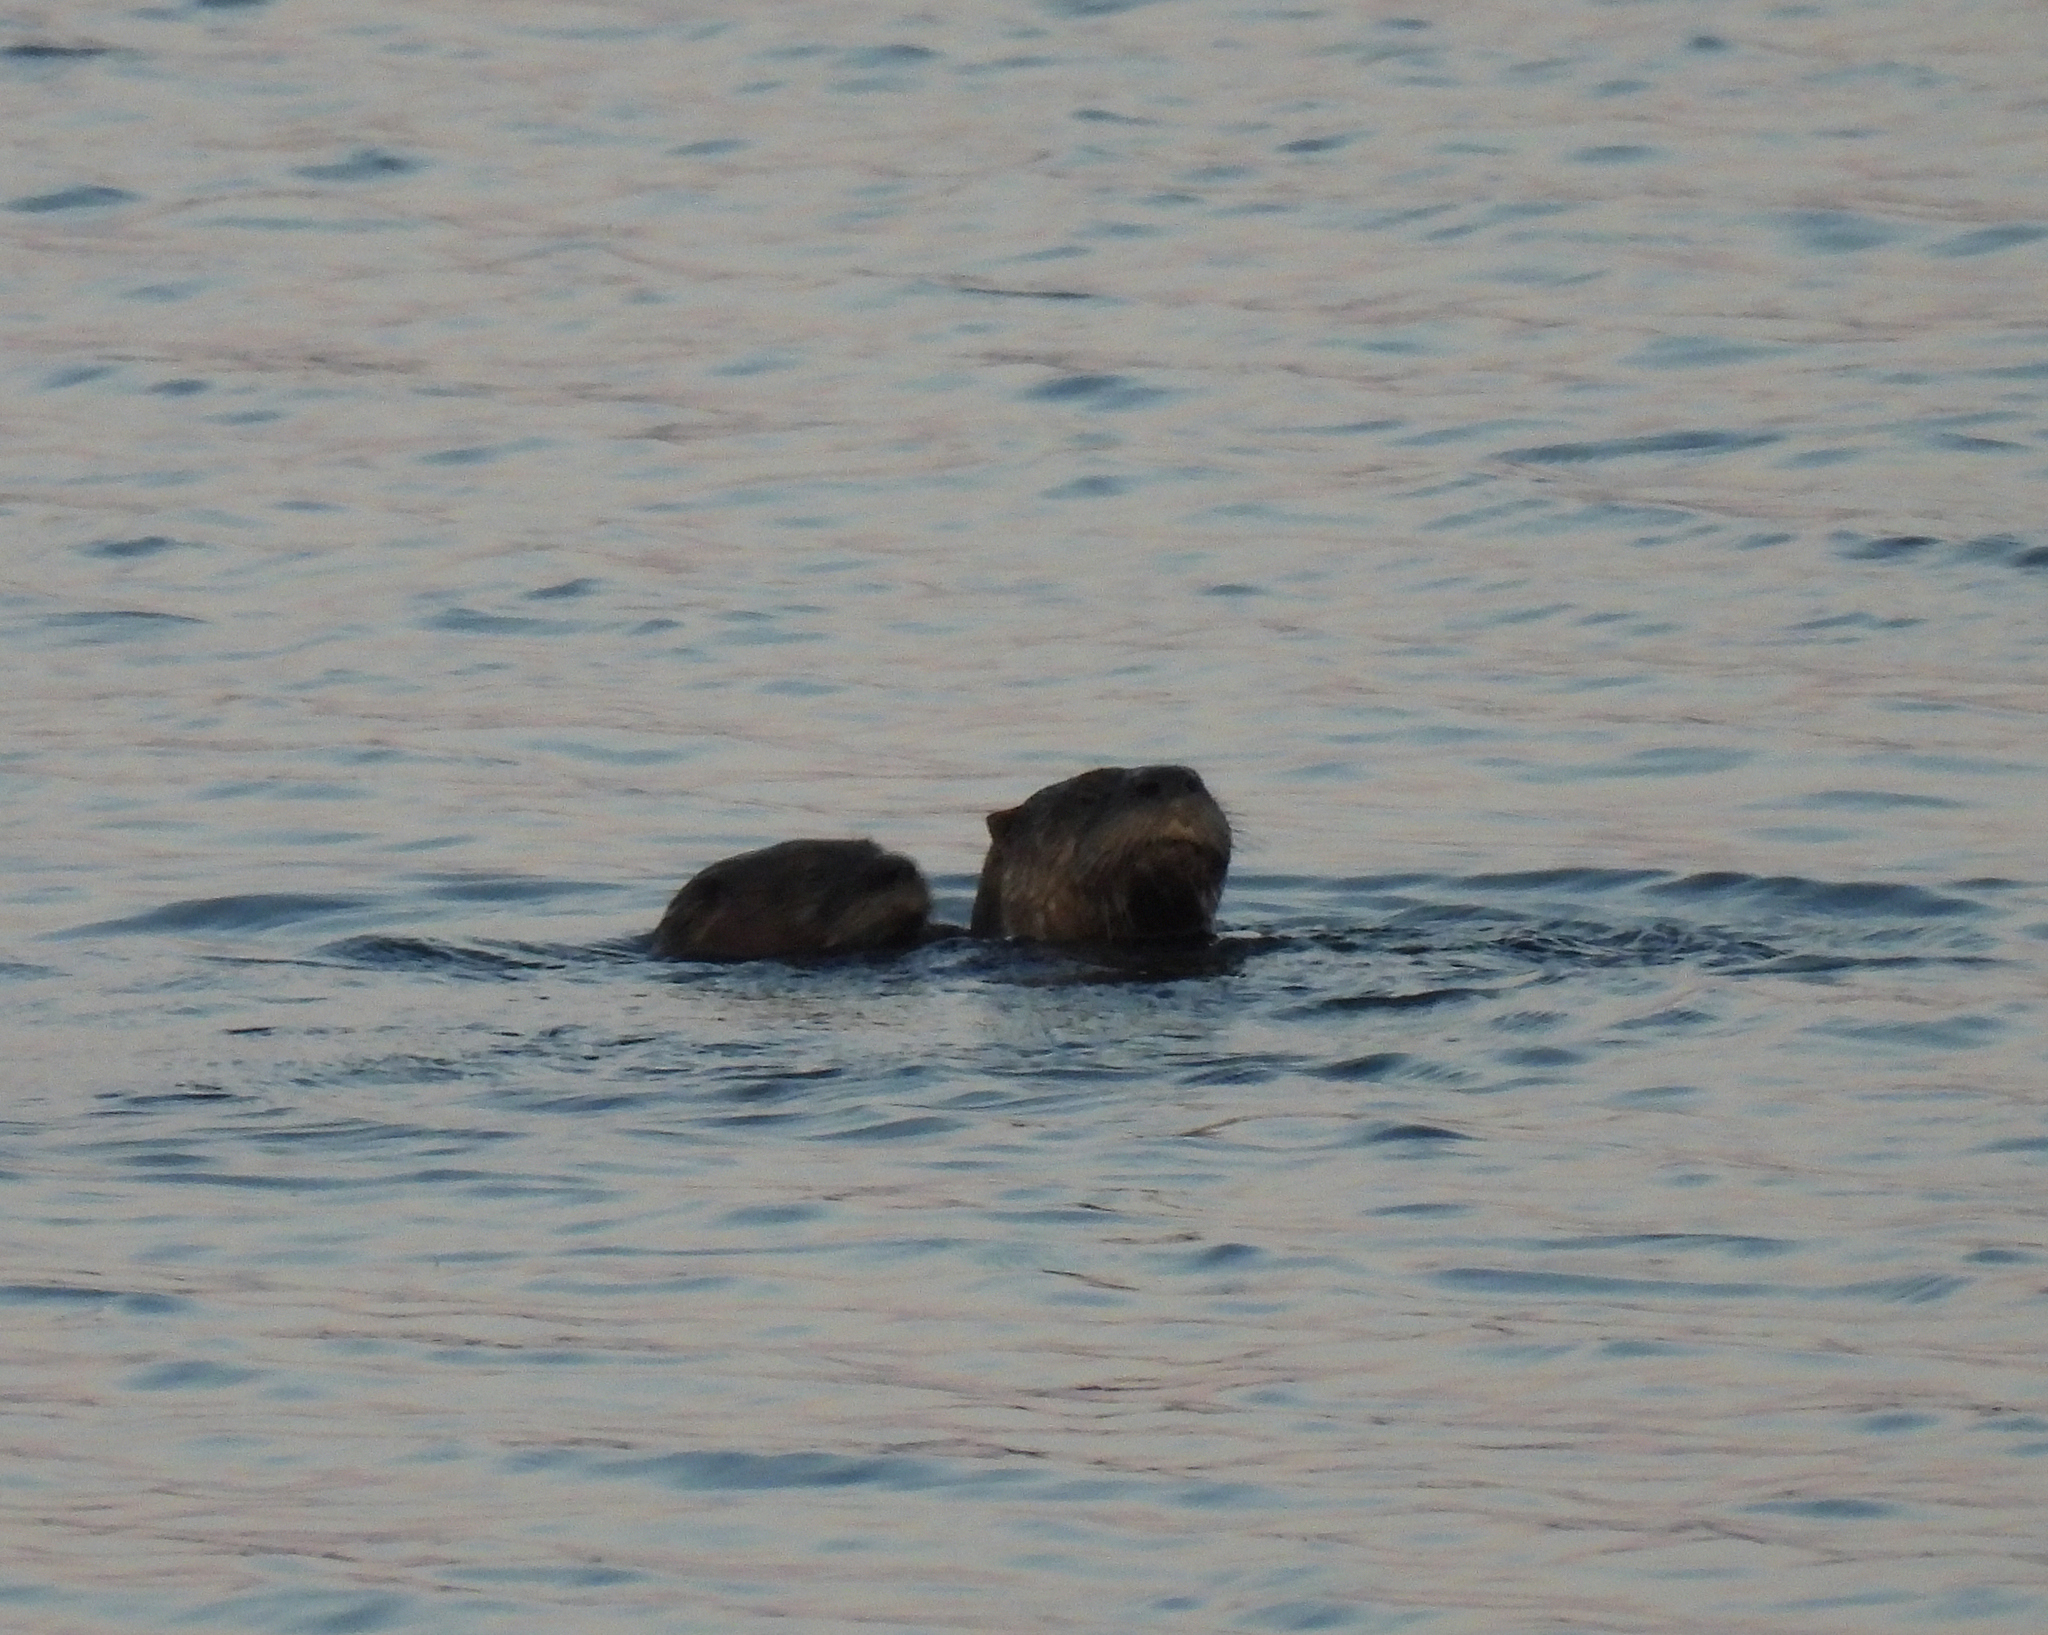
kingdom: Animalia
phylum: Chordata
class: Mammalia
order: Carnivora
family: Mustelidae
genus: Lontra
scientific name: Lontra canadensis
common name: North american river otter
